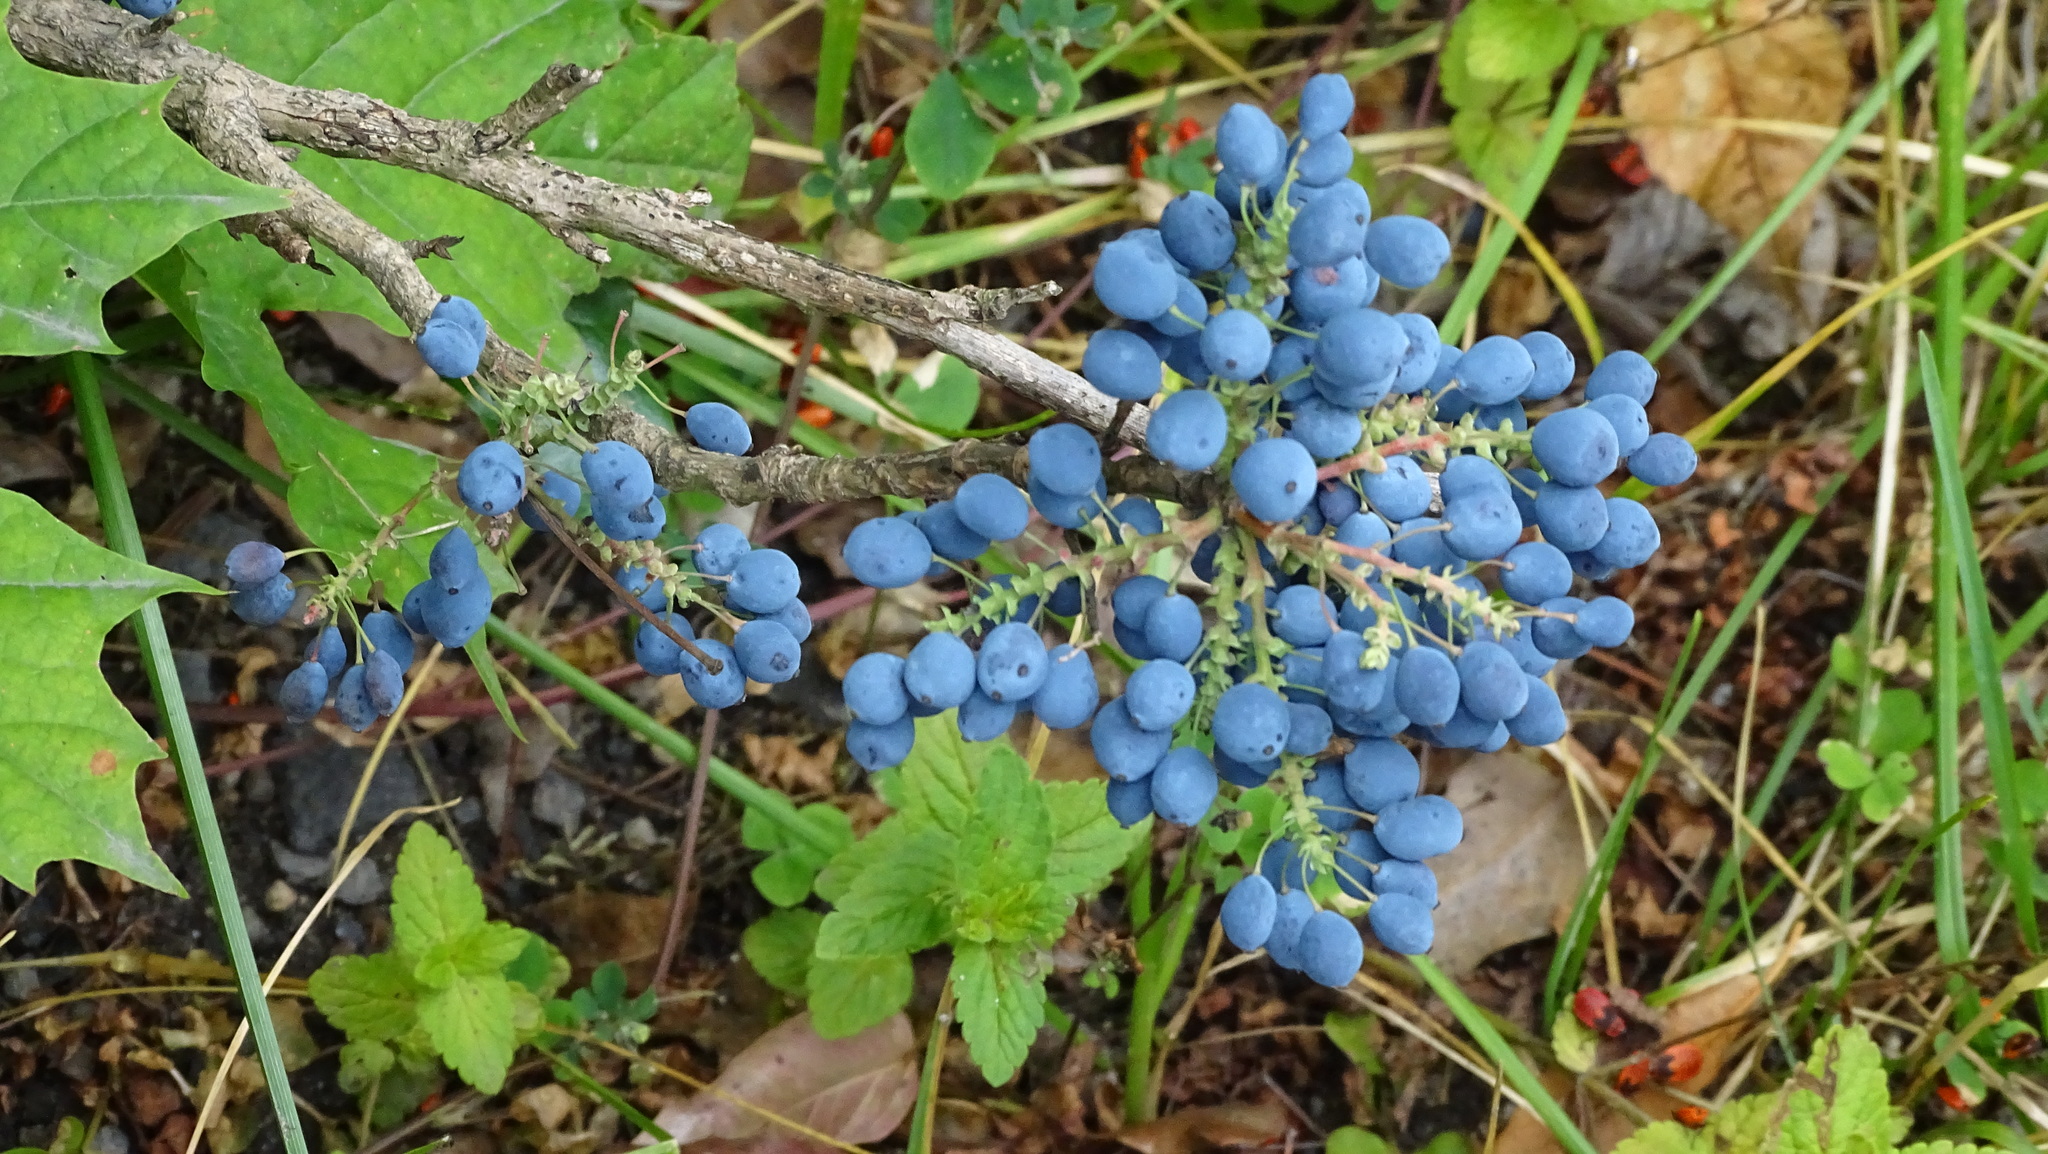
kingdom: Plantae
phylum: Tracheophyta
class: Magnoliopsida
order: Ranunculales
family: Berberidaceae
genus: Mahonia
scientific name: Mahonia aquifolium
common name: Oregon-grape
